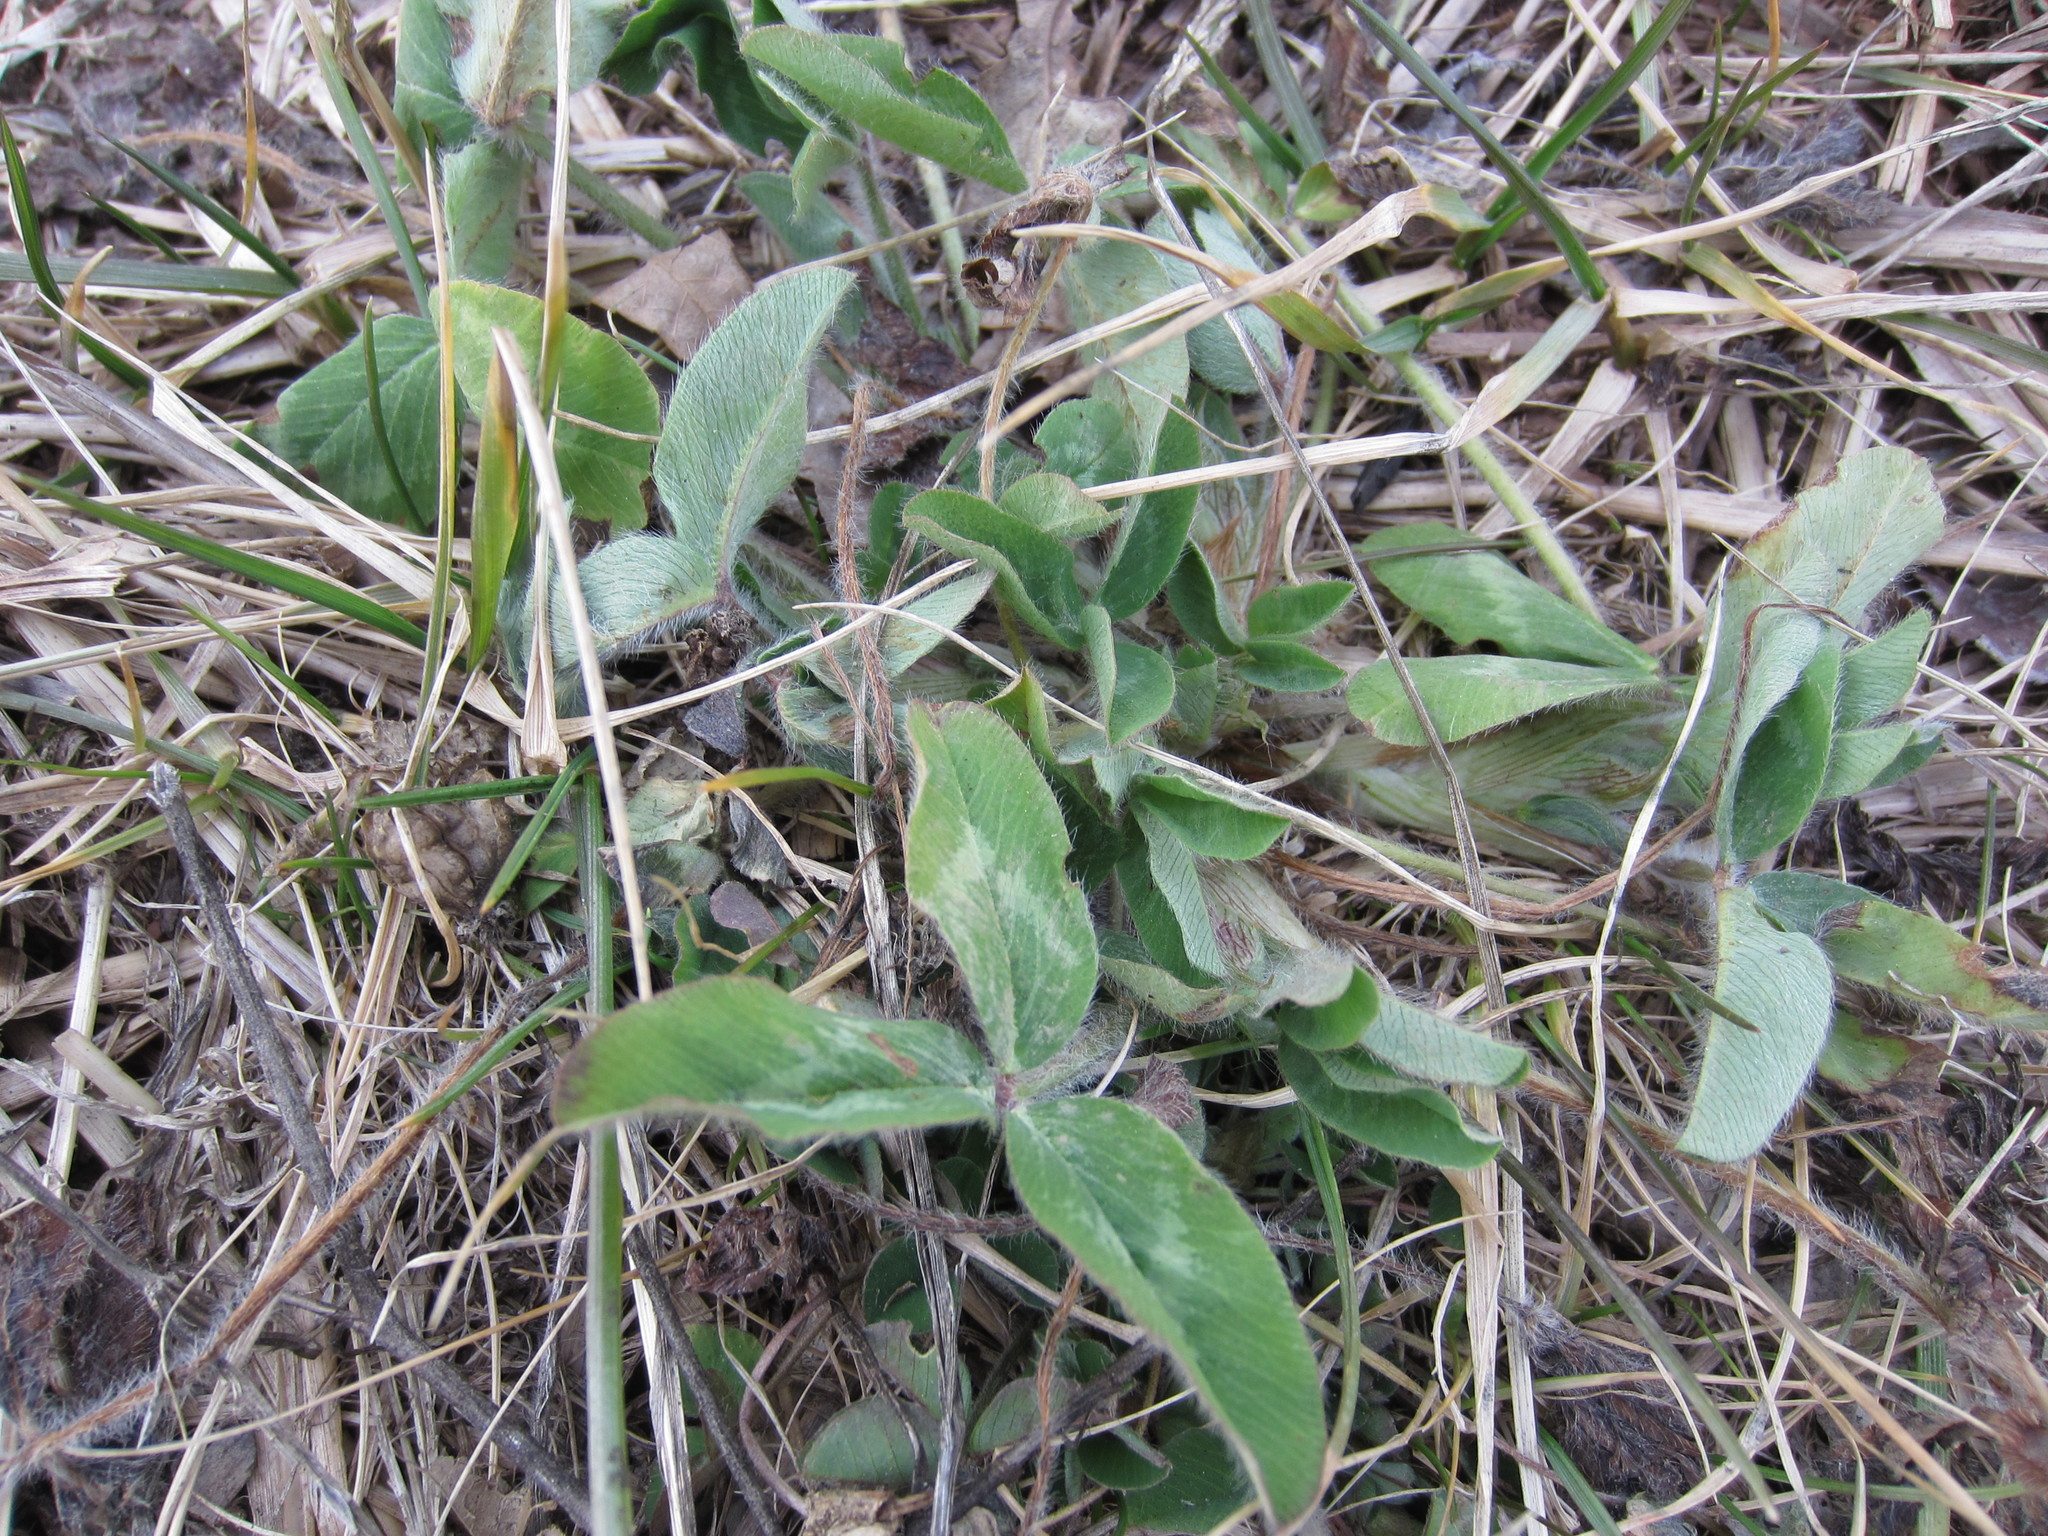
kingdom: Plantae
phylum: Tracheophyta
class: Magnoliopsida
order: Fabales
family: Fabaceae
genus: Trifolium
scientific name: Trifolium pratense
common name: Red clover
